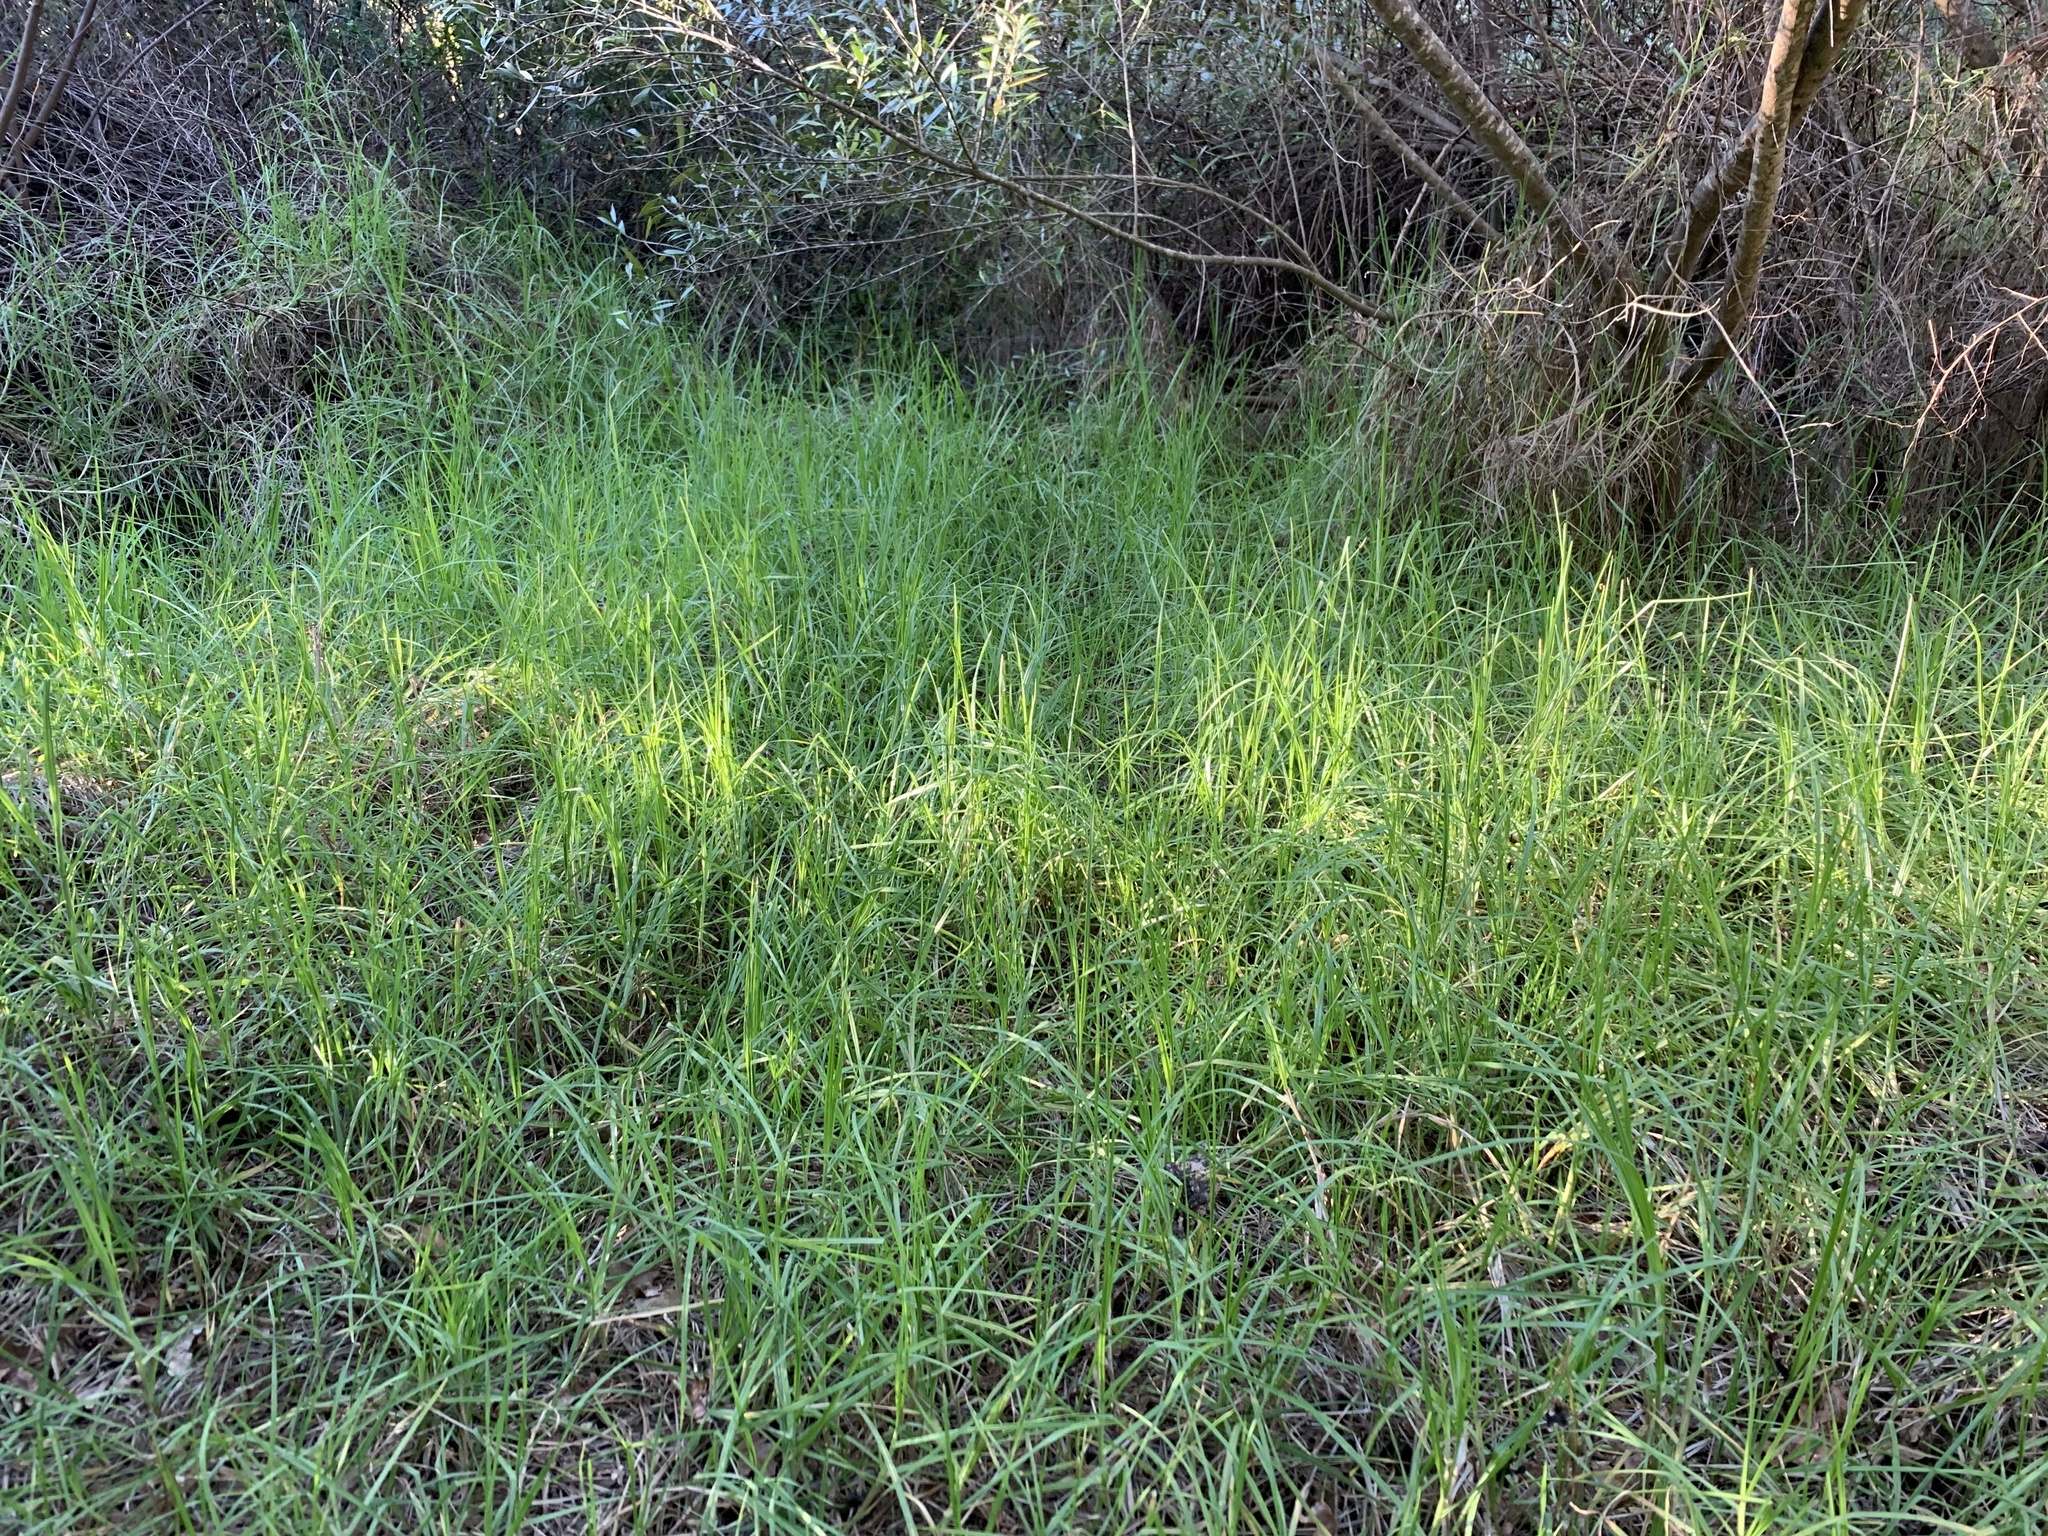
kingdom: Plantae
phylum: Tracheophyta
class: Liliopsida
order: Poales
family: Poaceae
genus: Cenchrus
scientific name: Cenchrus clandestinus
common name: Kikuyugrass
